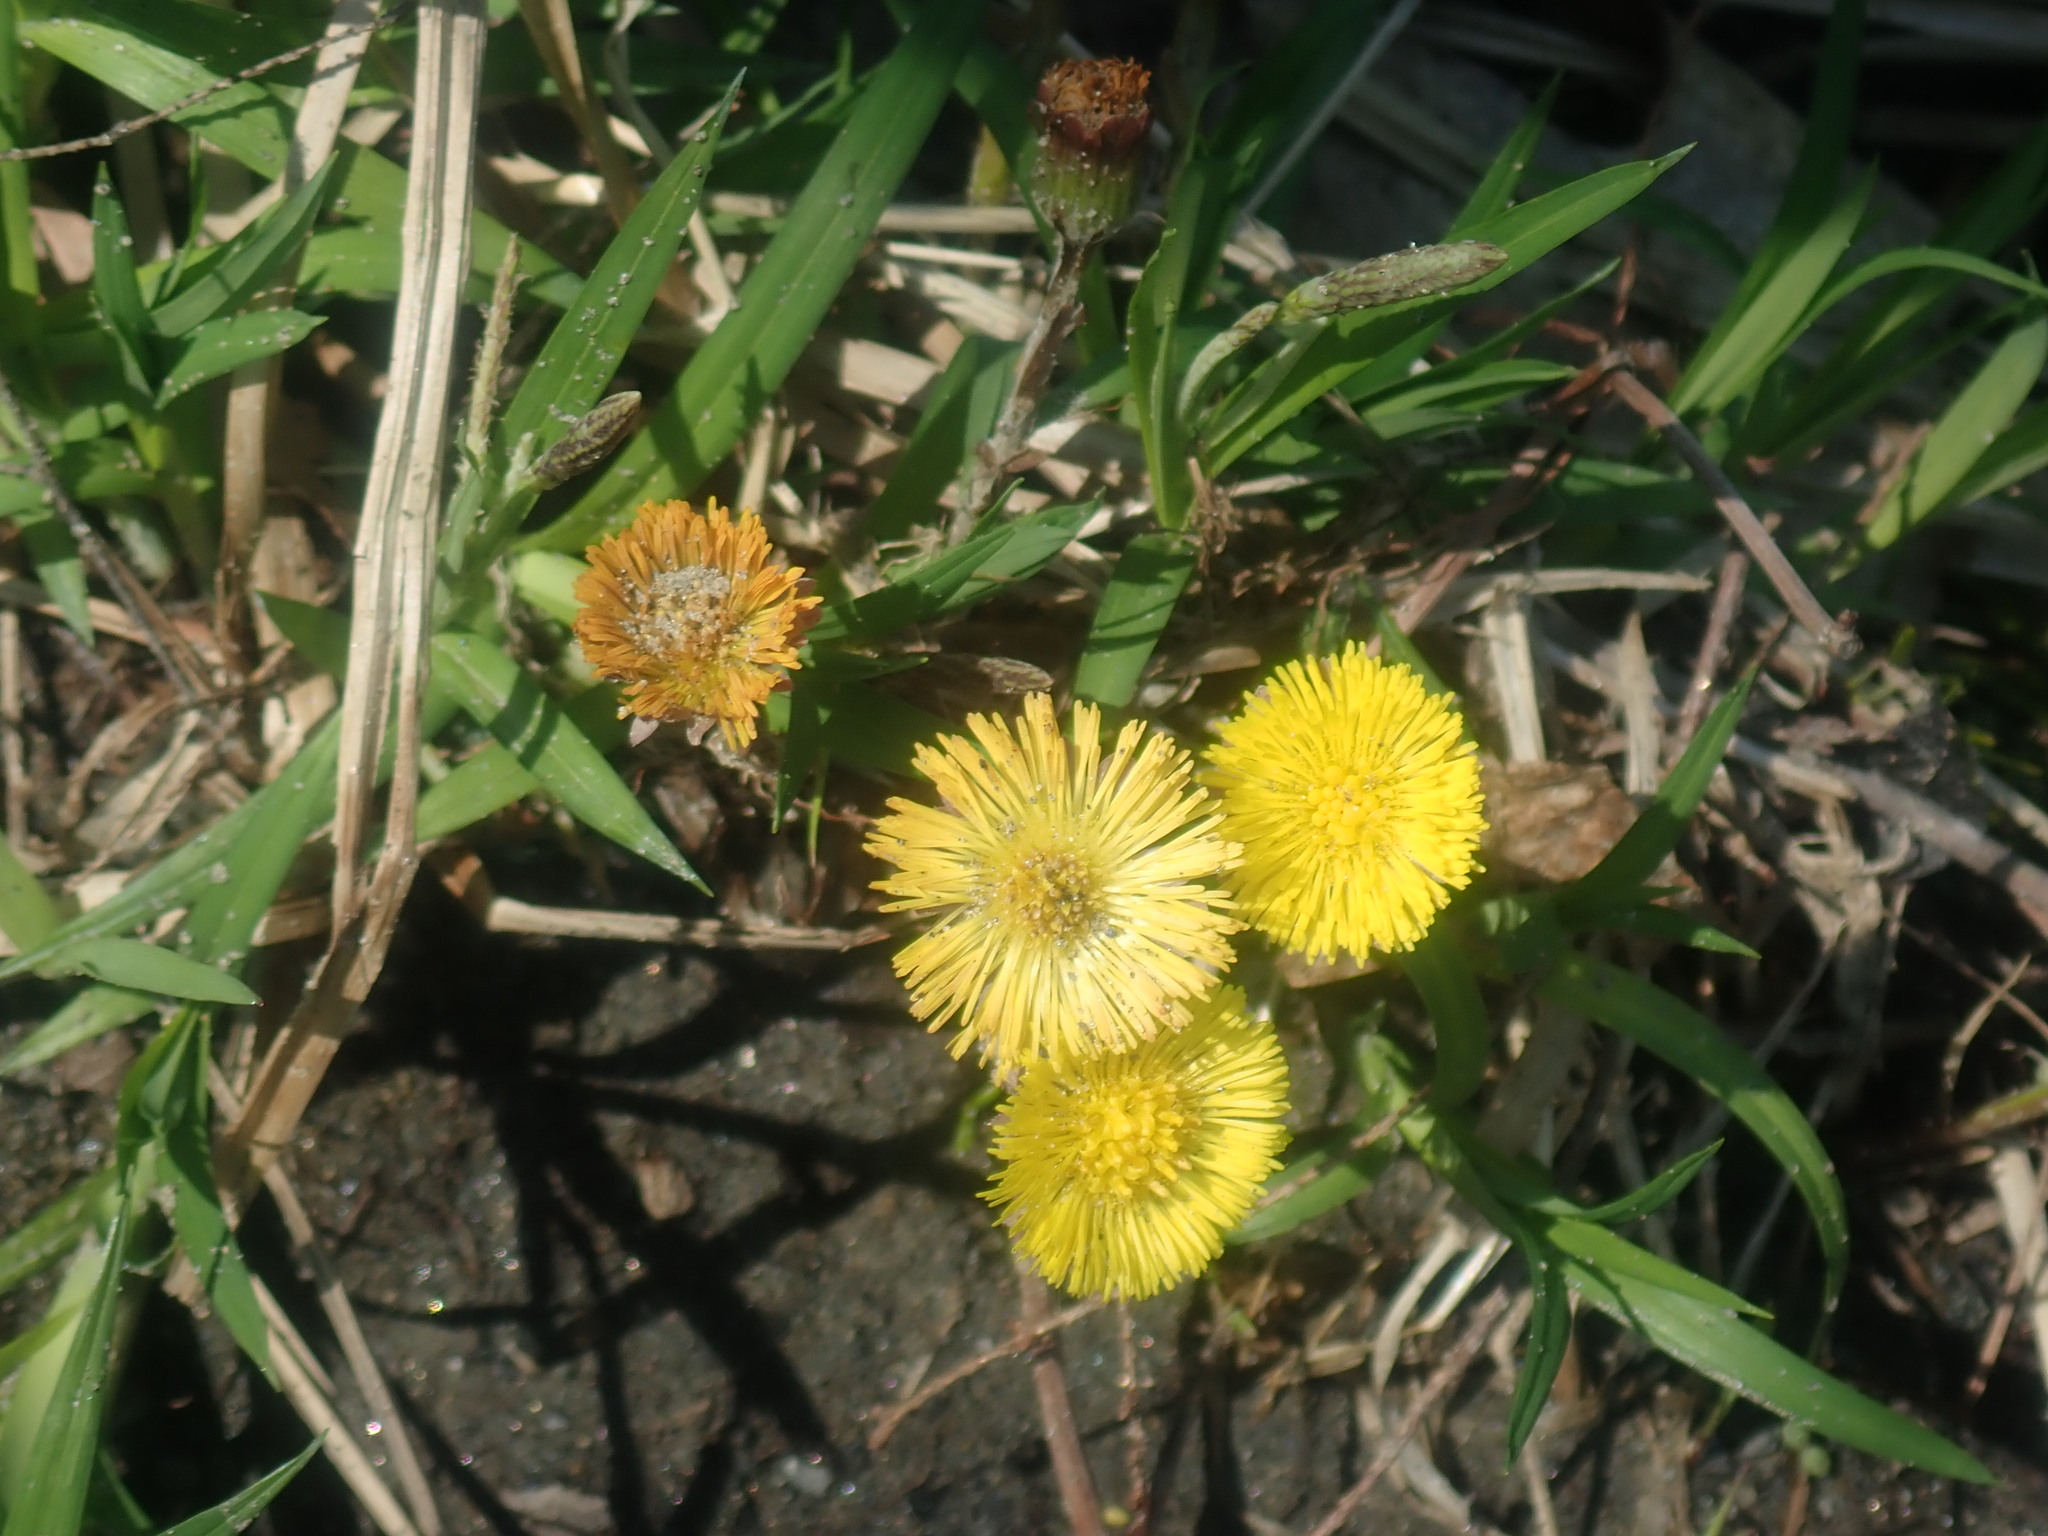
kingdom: Plantae
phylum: Tracheophyta
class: Magnoliopsida
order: Asterales
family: Asteraceae
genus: Tussilago
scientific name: Tussilago farfara
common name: Coltsfoot
